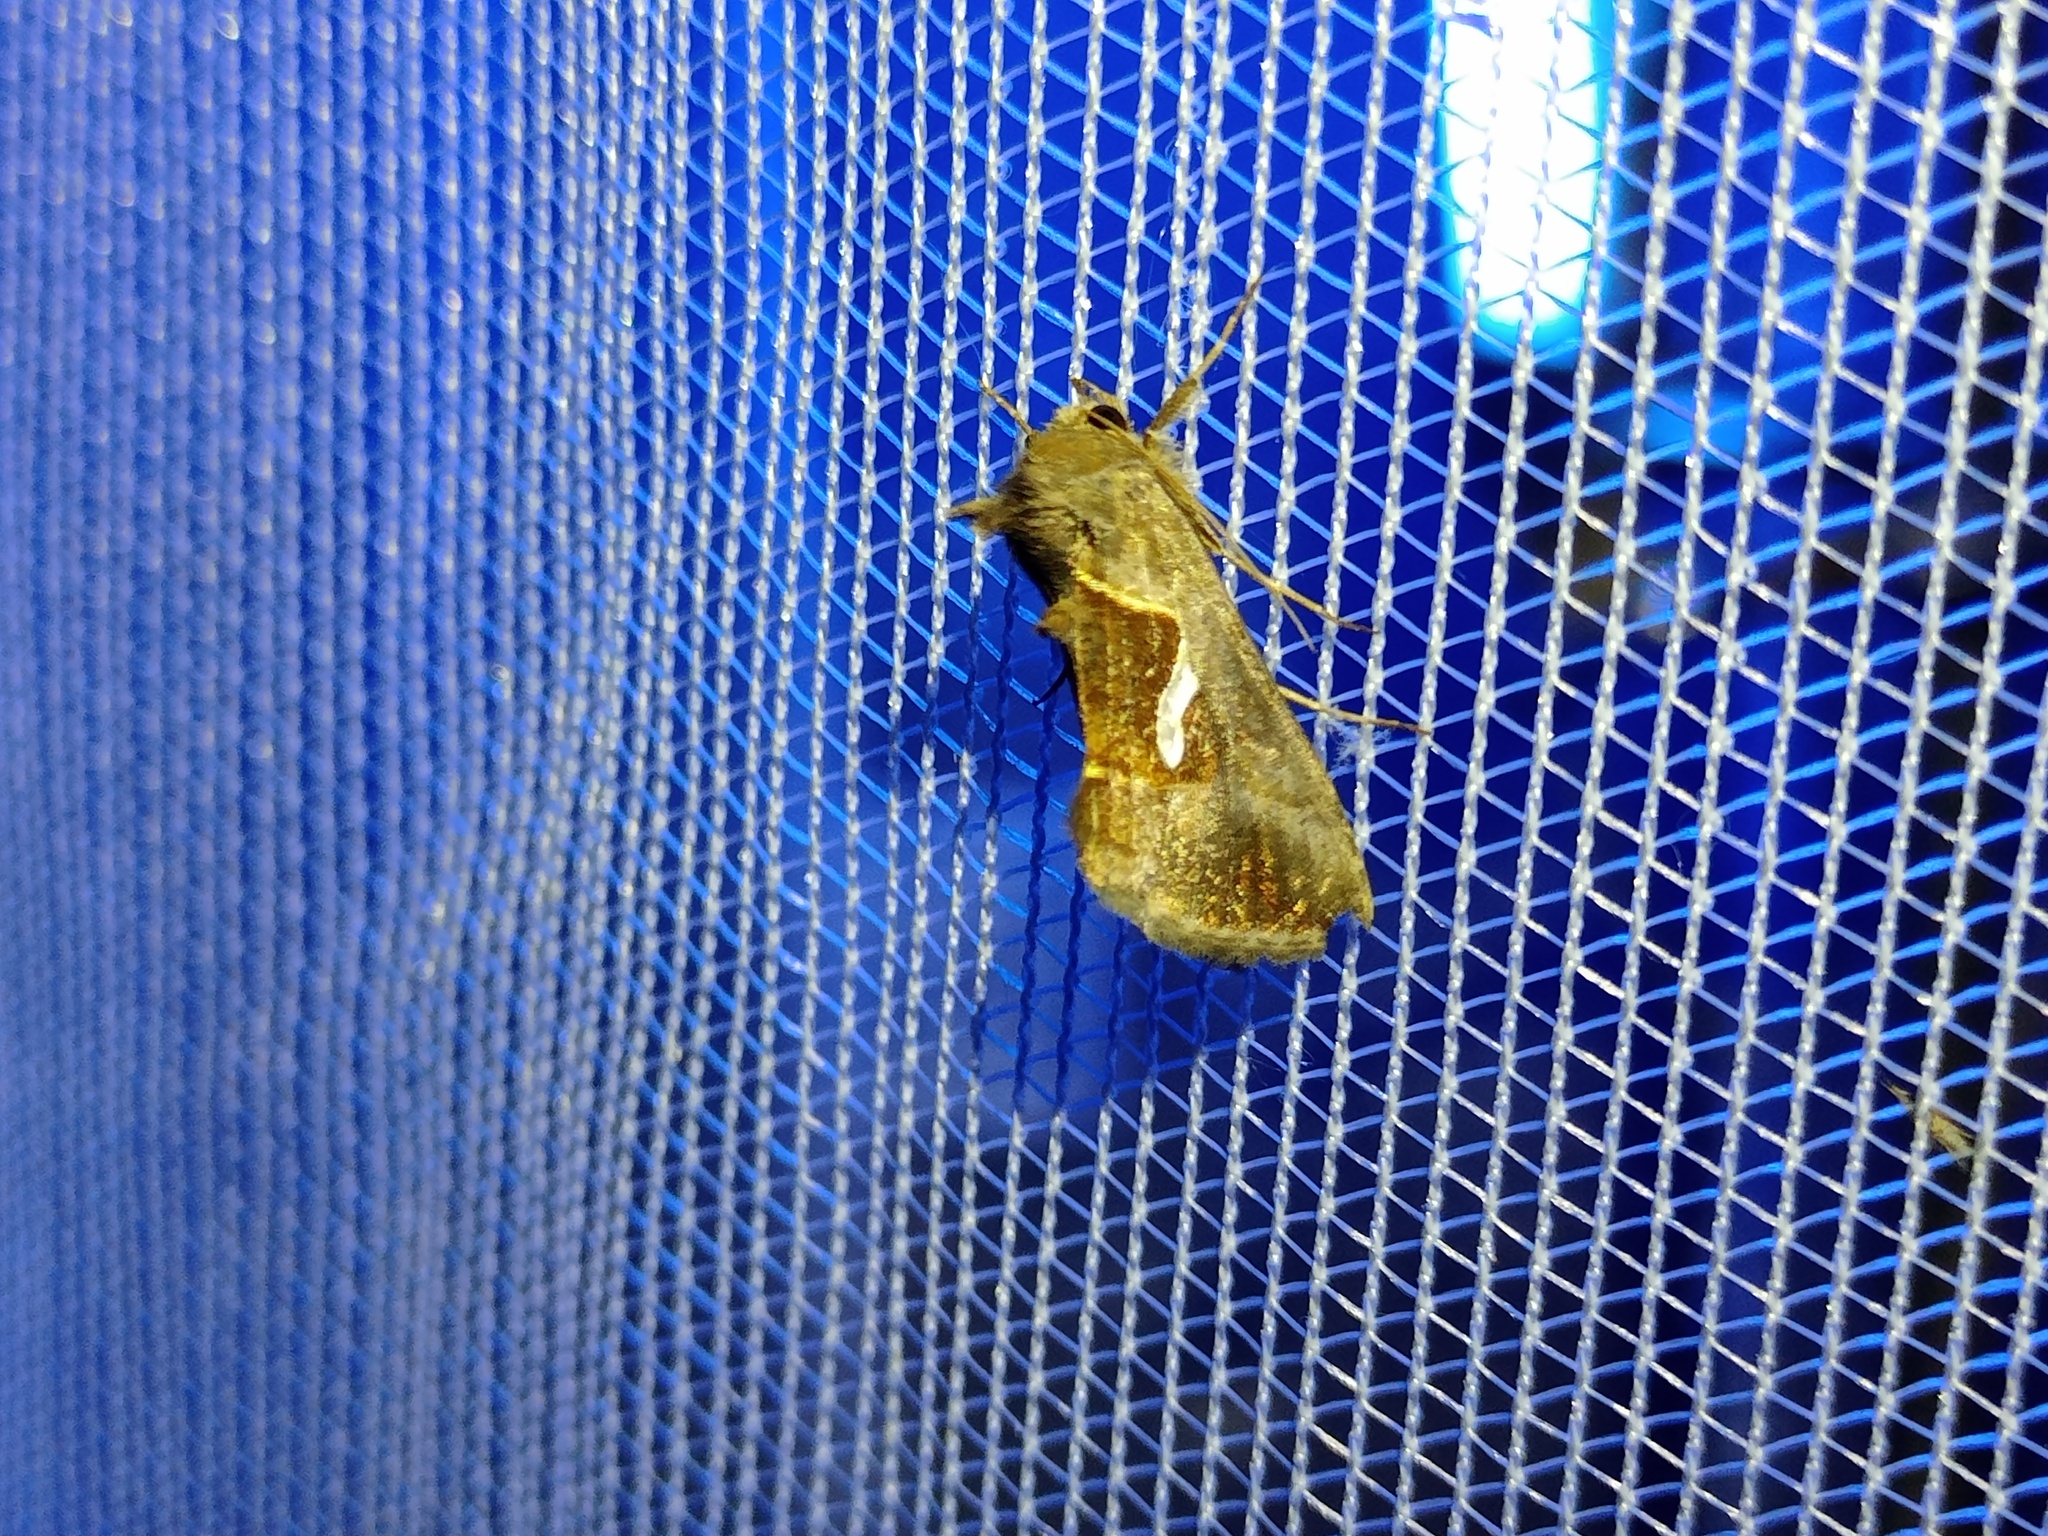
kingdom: Animalia
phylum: Arthropoda
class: Insecta
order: Lepidoptera
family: Noctuidae
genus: Macdunnoughia
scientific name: Macdunnoughia confusa
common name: Dewick's plusia
